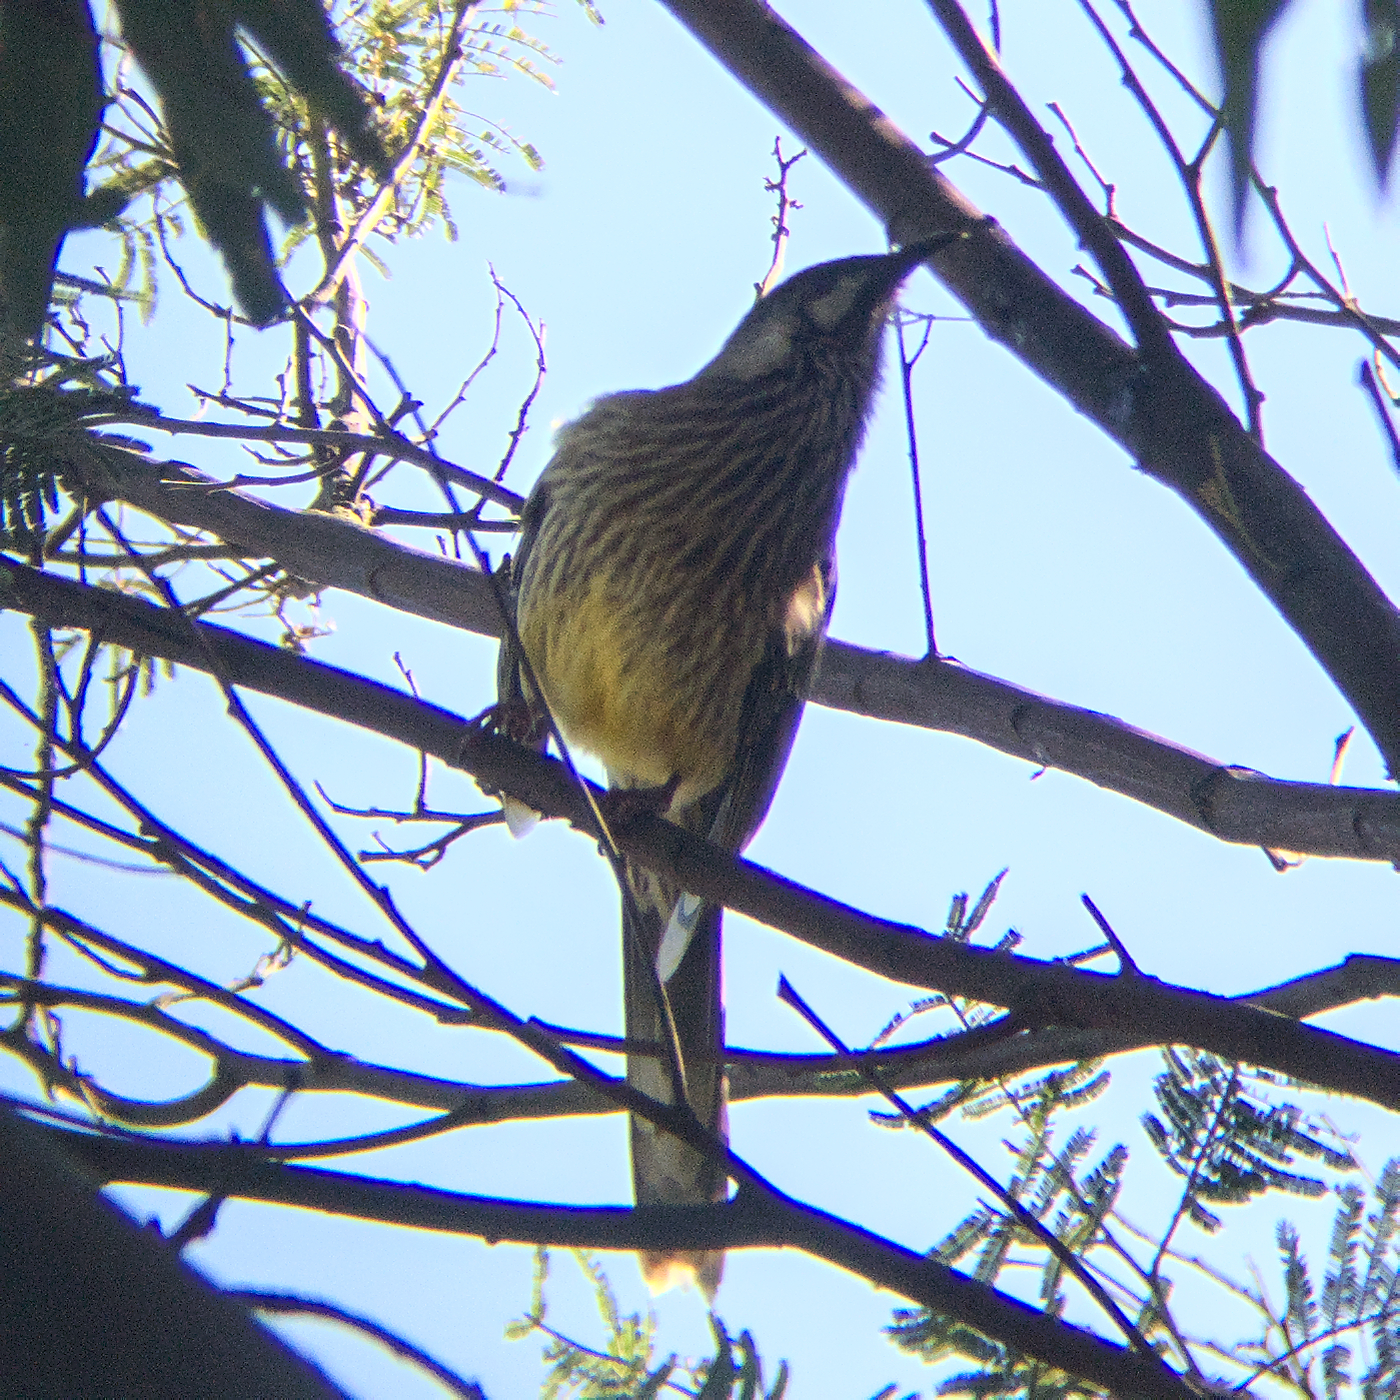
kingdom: Animalia
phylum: Chordata
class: Aves
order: Passeriformes
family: Meliphagidae
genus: Anthochaera
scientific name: Anthochaera carunculata
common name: Red wattlebird
